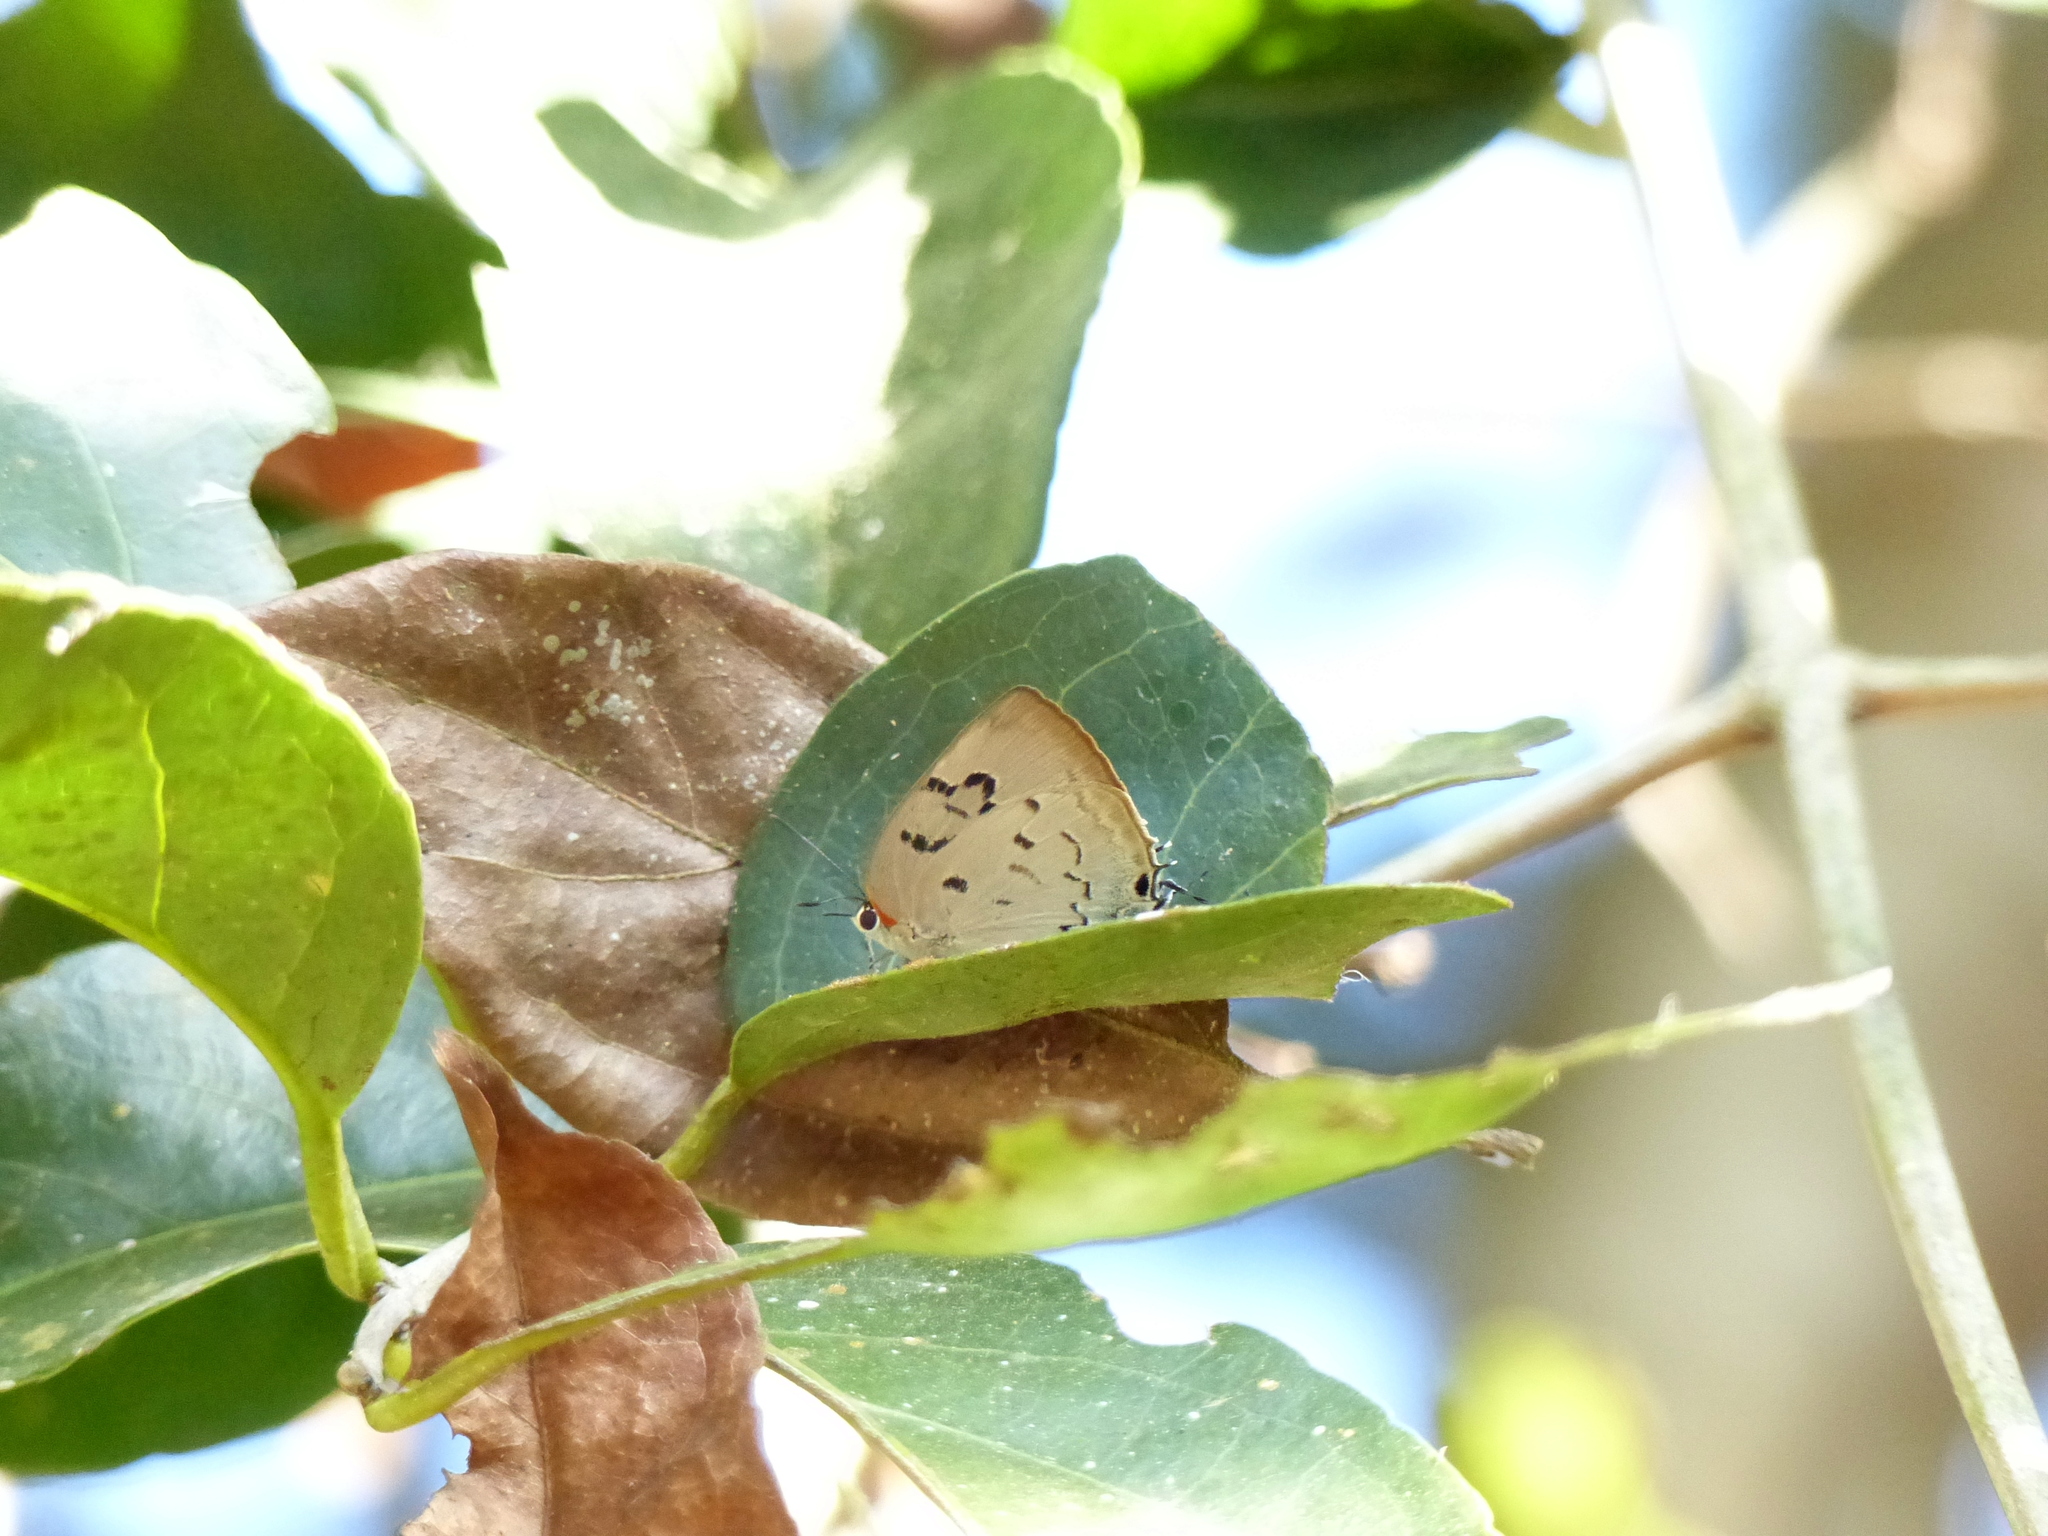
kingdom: Animalia
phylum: Arthropoda
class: Insecta
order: Lepidoptera
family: Lycaenidae
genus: Panthiades
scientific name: Panthiades hebraeus
